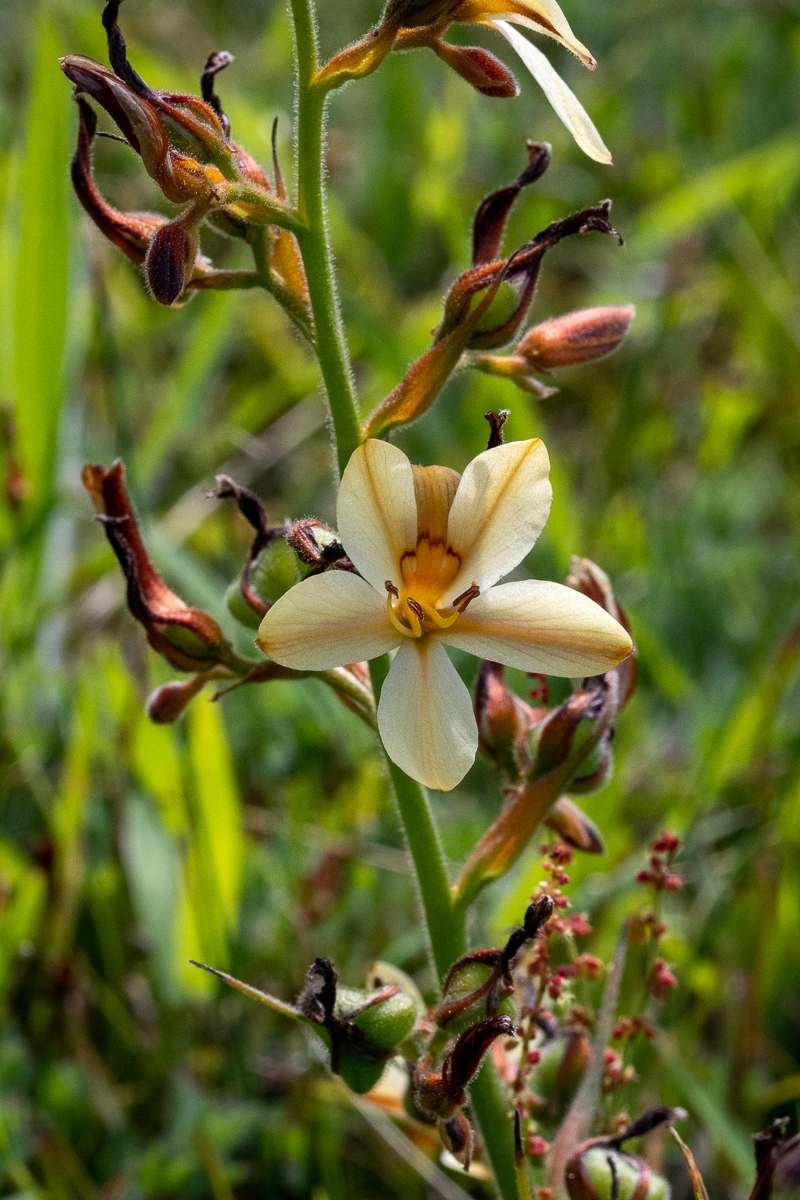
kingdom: Plantae
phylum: Tracheophyta
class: Liliopsida
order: Commelinales
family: Haemodoraceae
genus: Wachendorfia
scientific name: Wachendorfia paniculata
